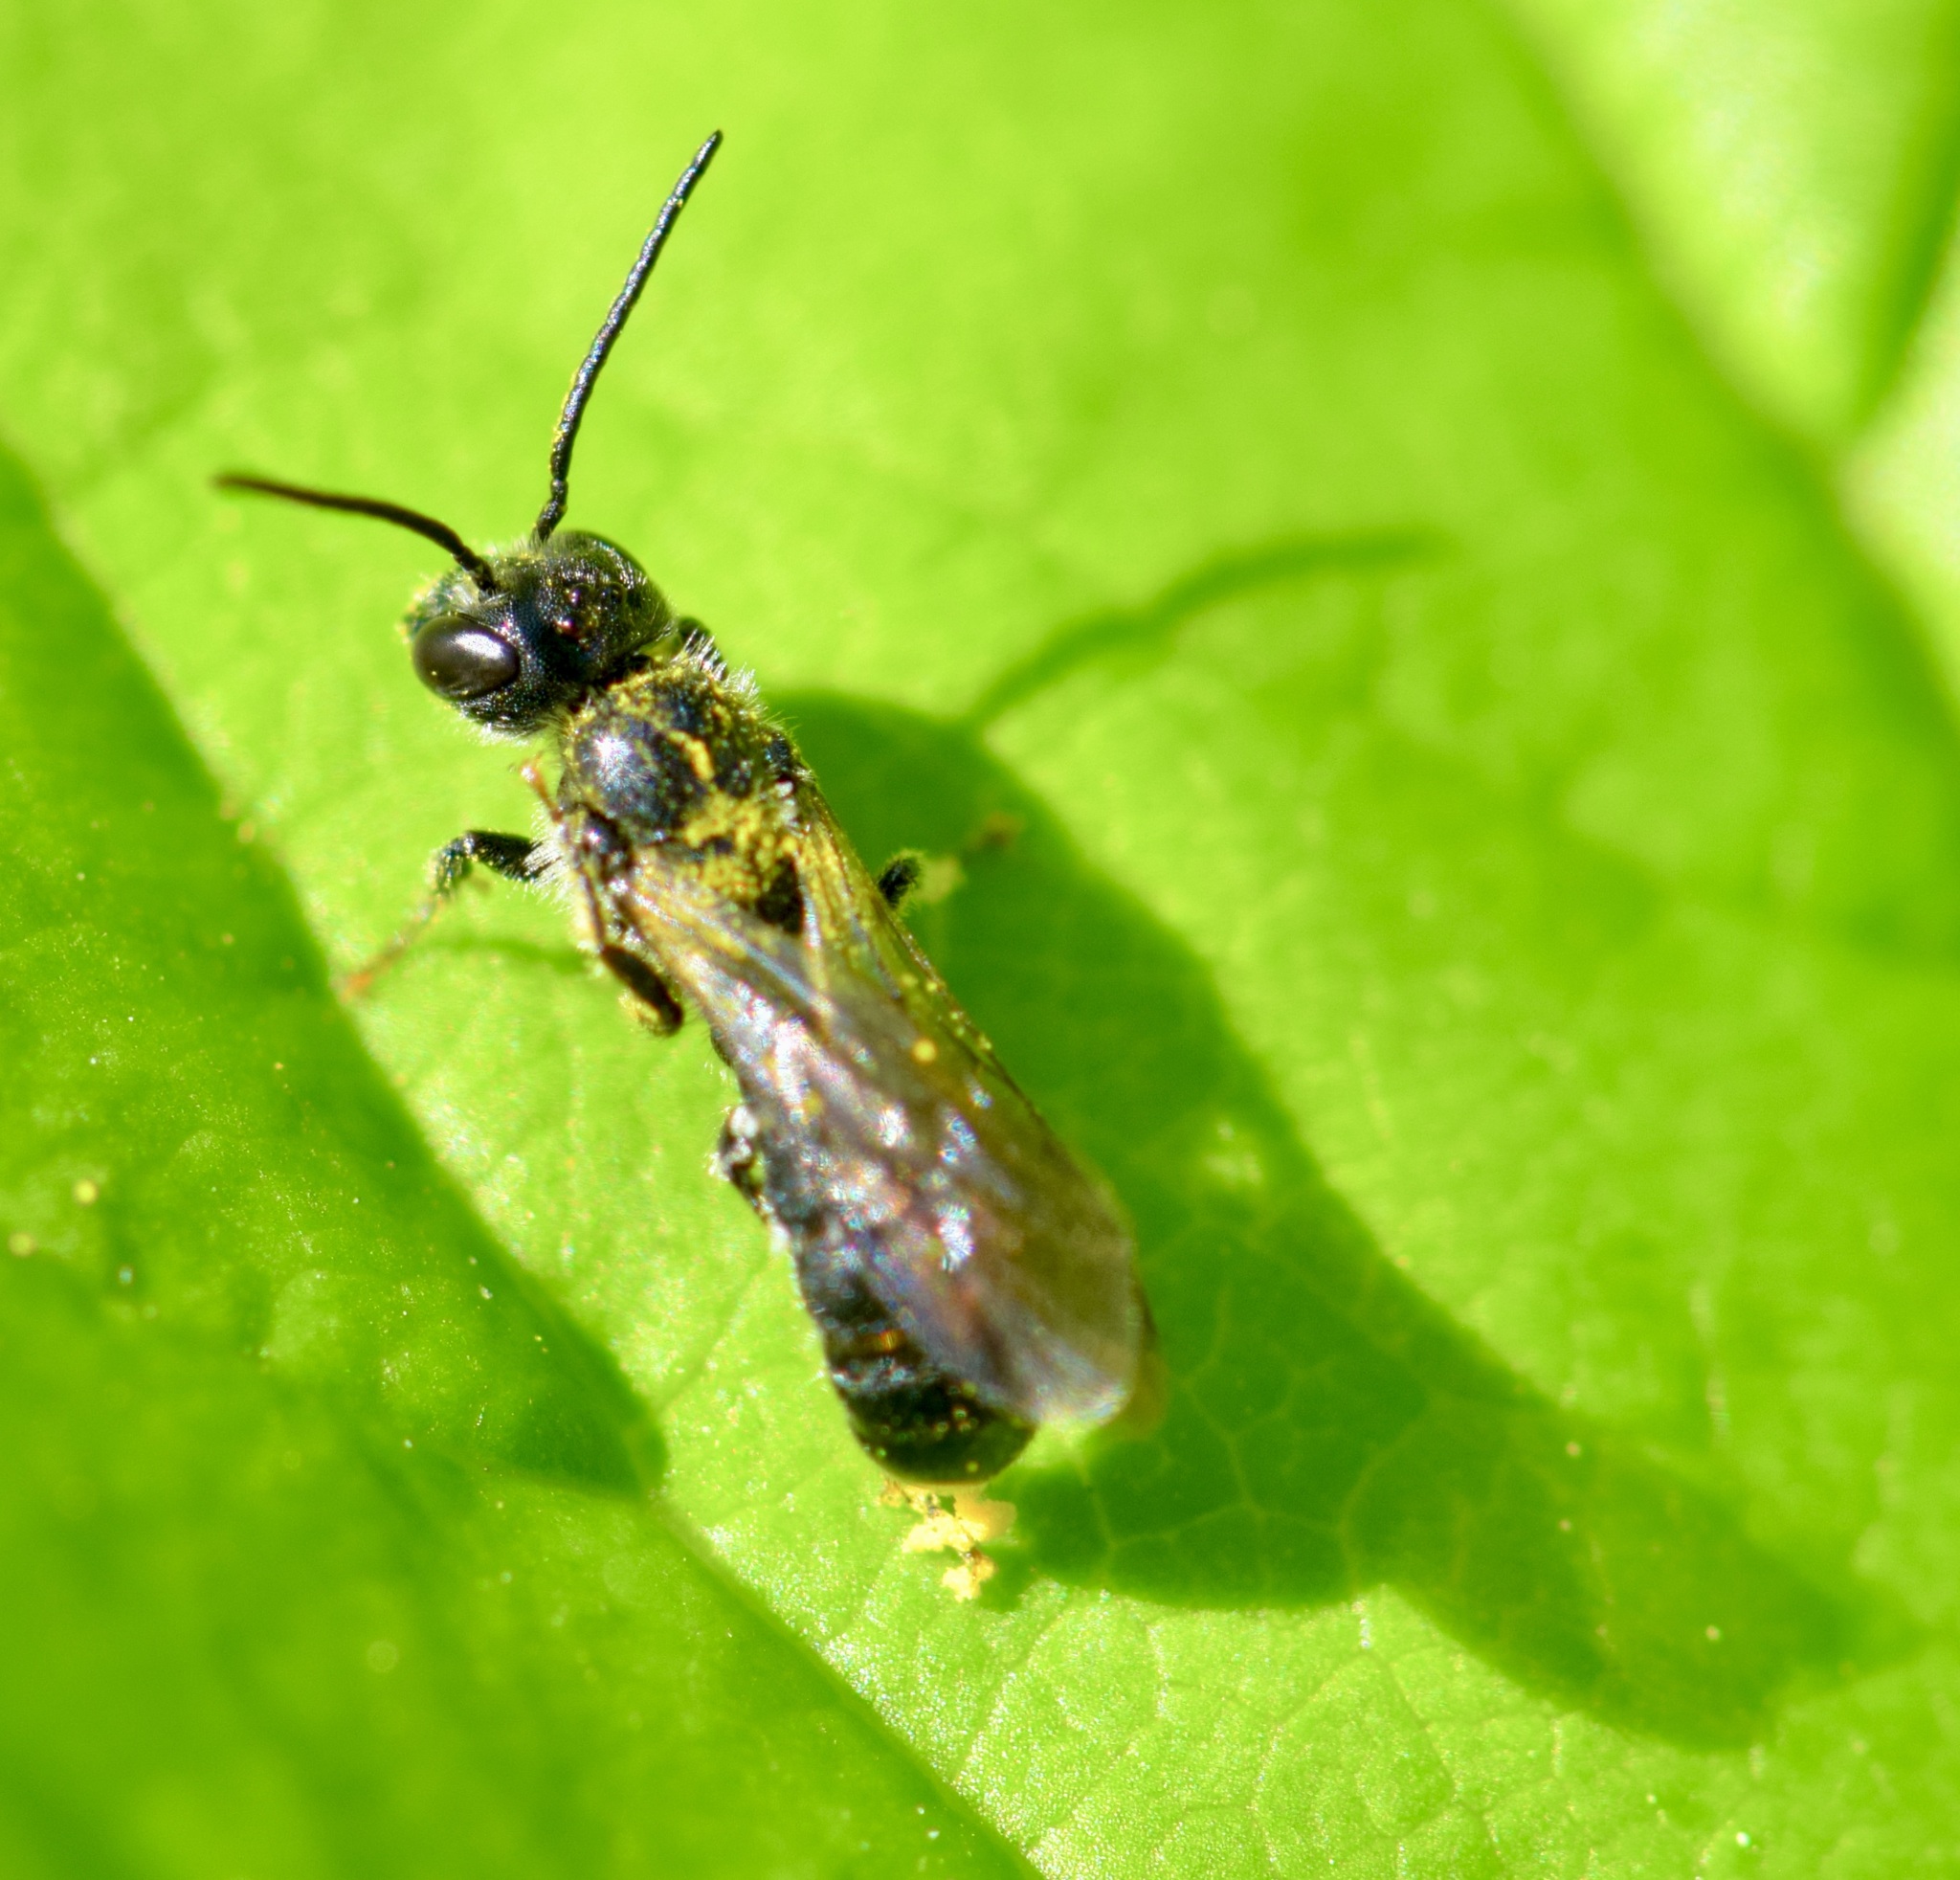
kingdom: Animalia
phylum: Arthropoda
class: Insecta
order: Hymenoptera
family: Megachilidae
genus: Chelostoma
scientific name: Chelostoma philadelphi
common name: Mock-orange scissor bee
